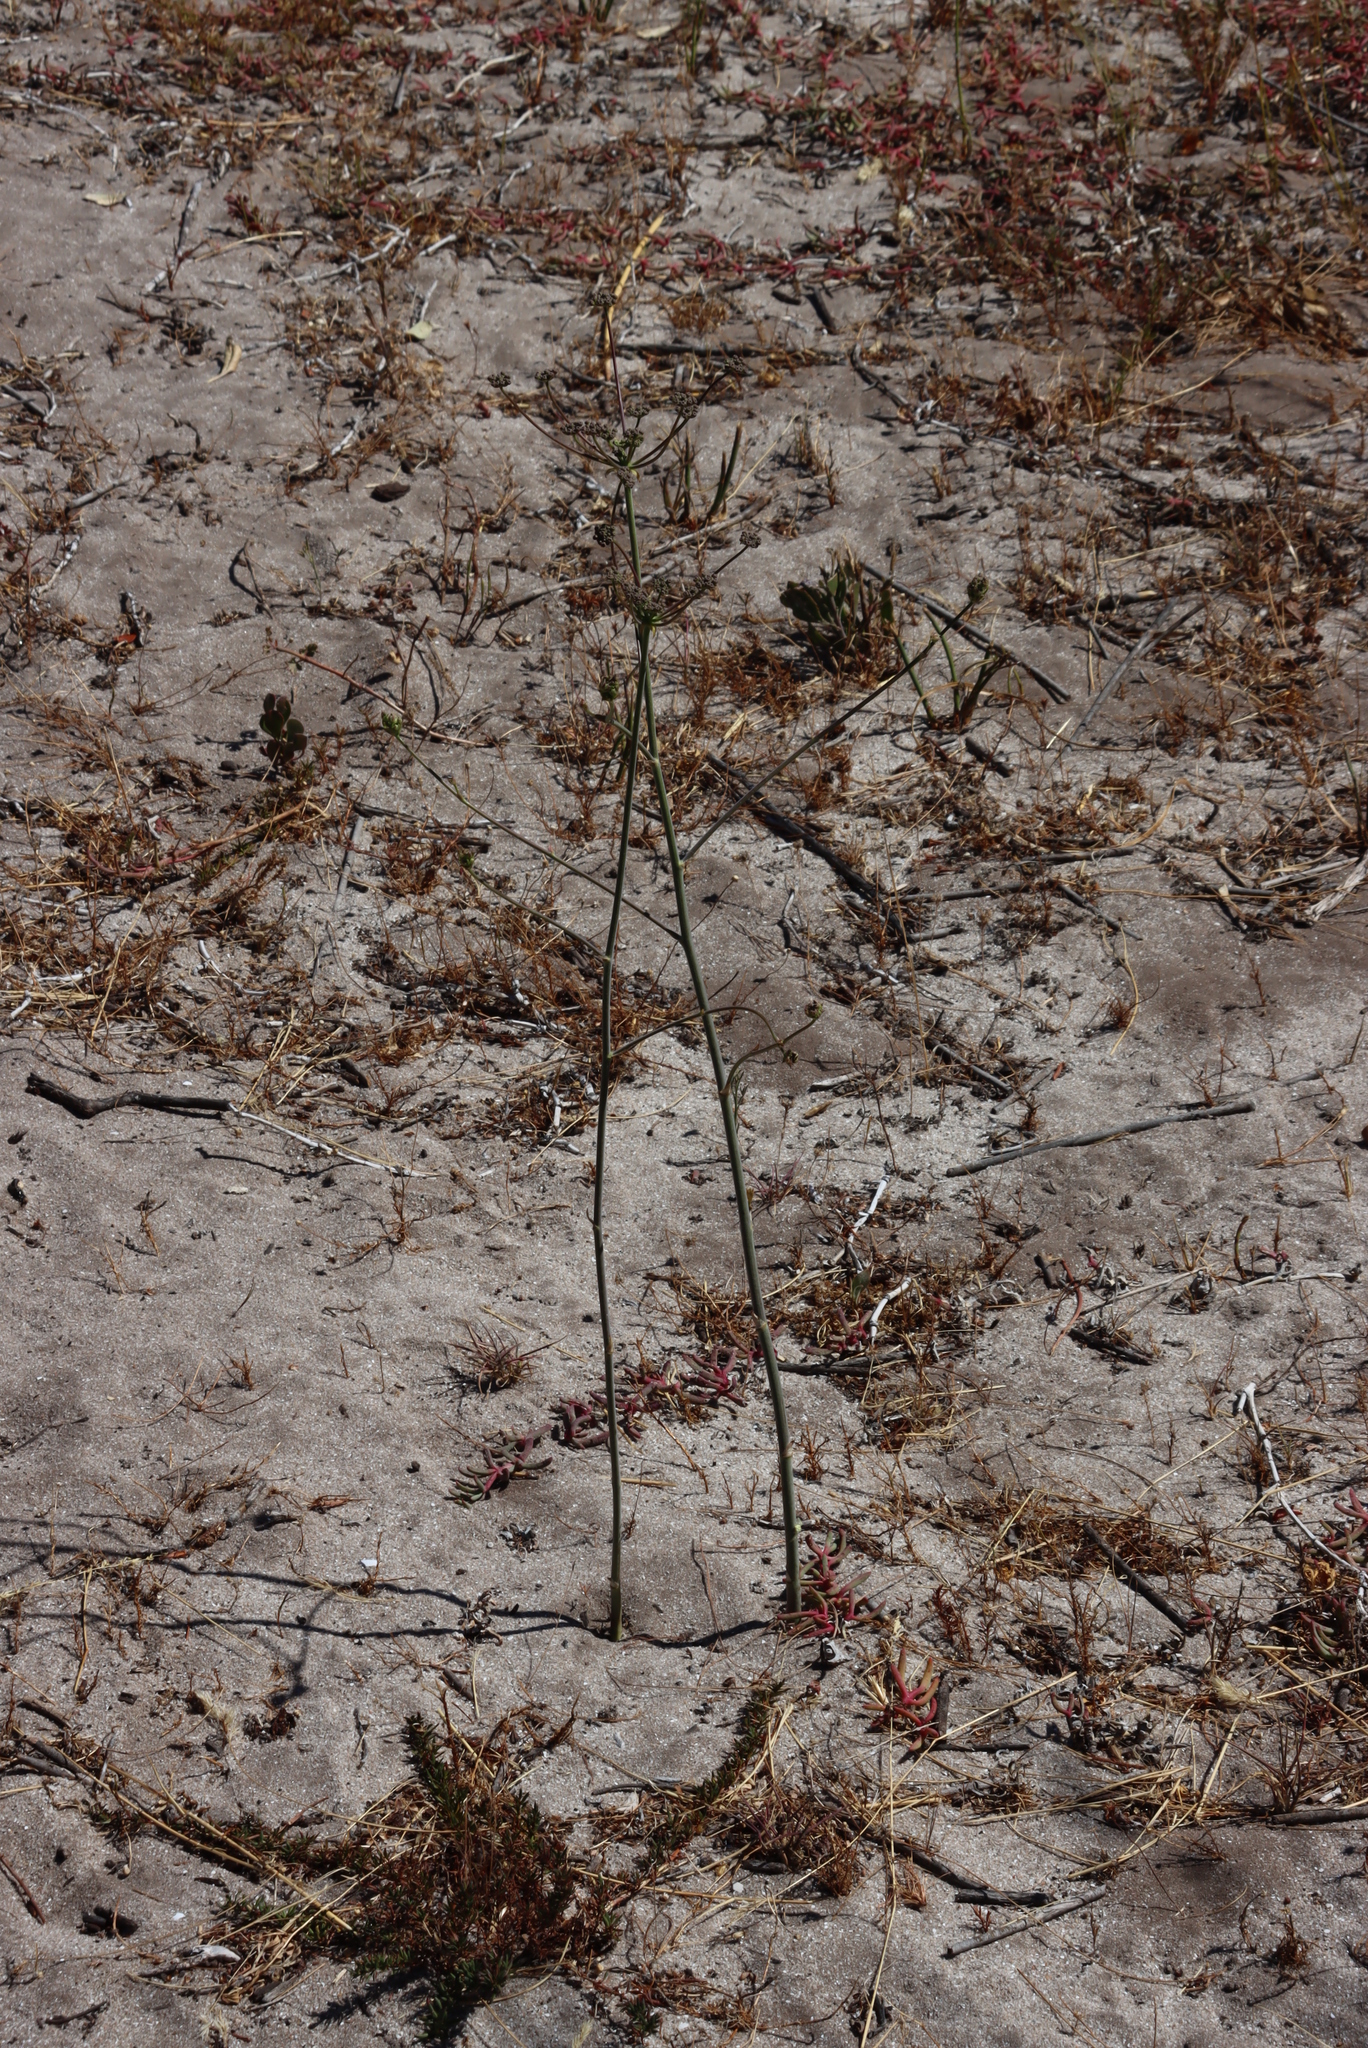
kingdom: Plantae
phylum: Tracheophyta
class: Magnoliopsida
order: Apiales
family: Apiaceae
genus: Annesorhiza
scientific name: Annesorhiza macrocarpa
